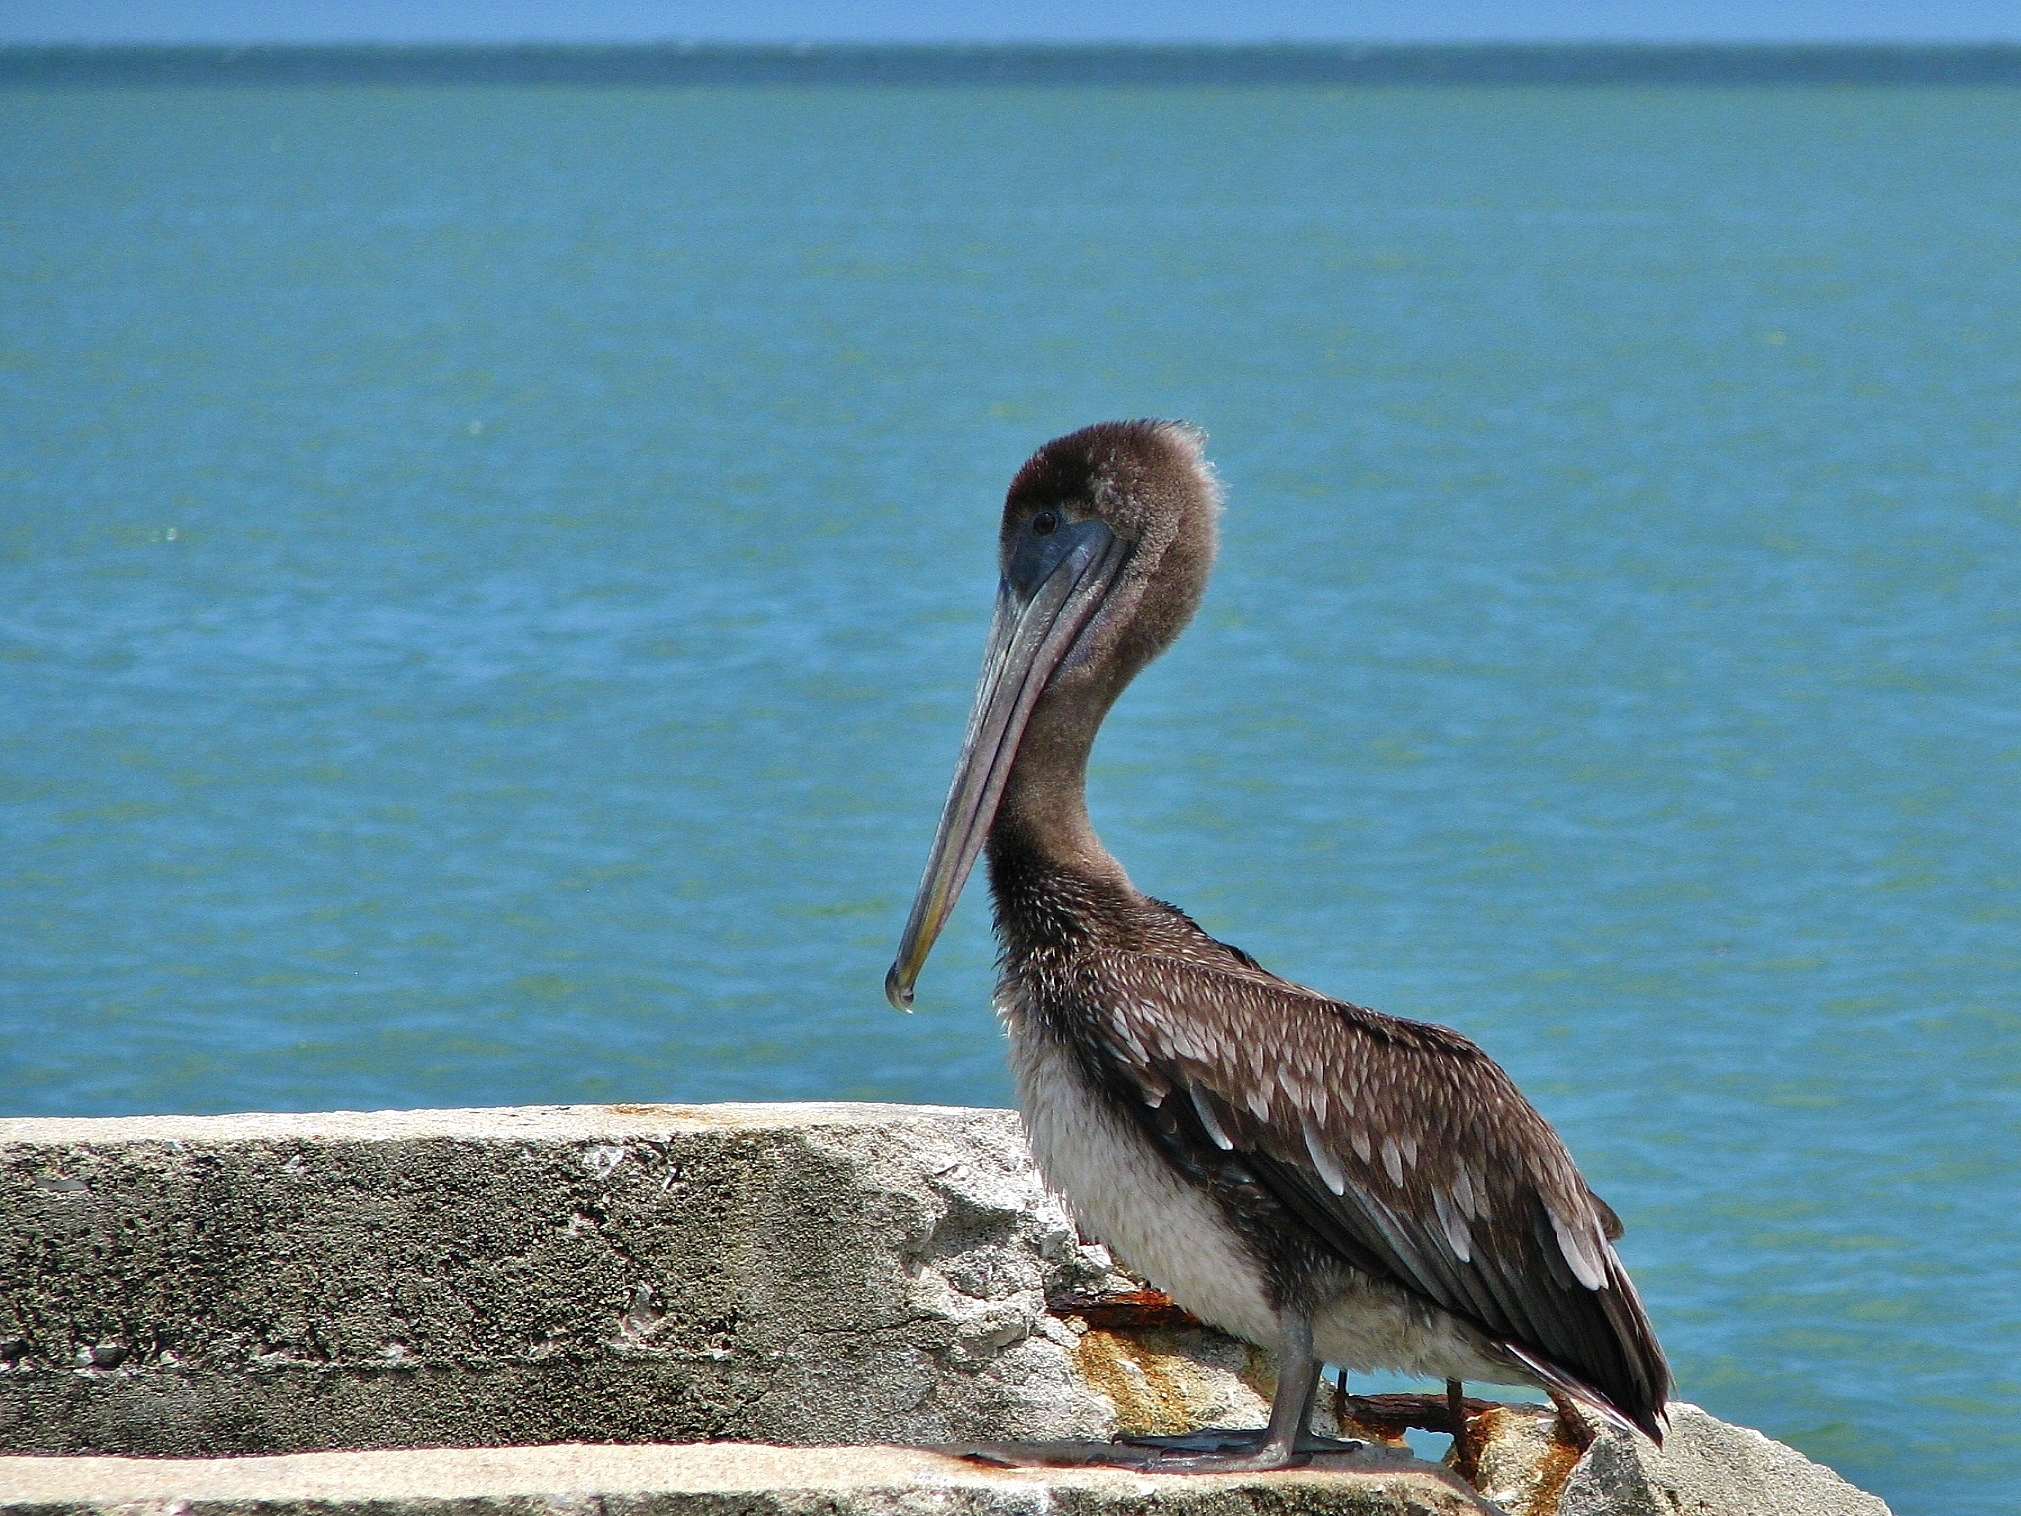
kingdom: Animalia
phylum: Chordata
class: Aves
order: Pelecaniformes
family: Pelecanidae
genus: Pelecanus
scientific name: Pelecanus occidentalis
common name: Brown pelican
